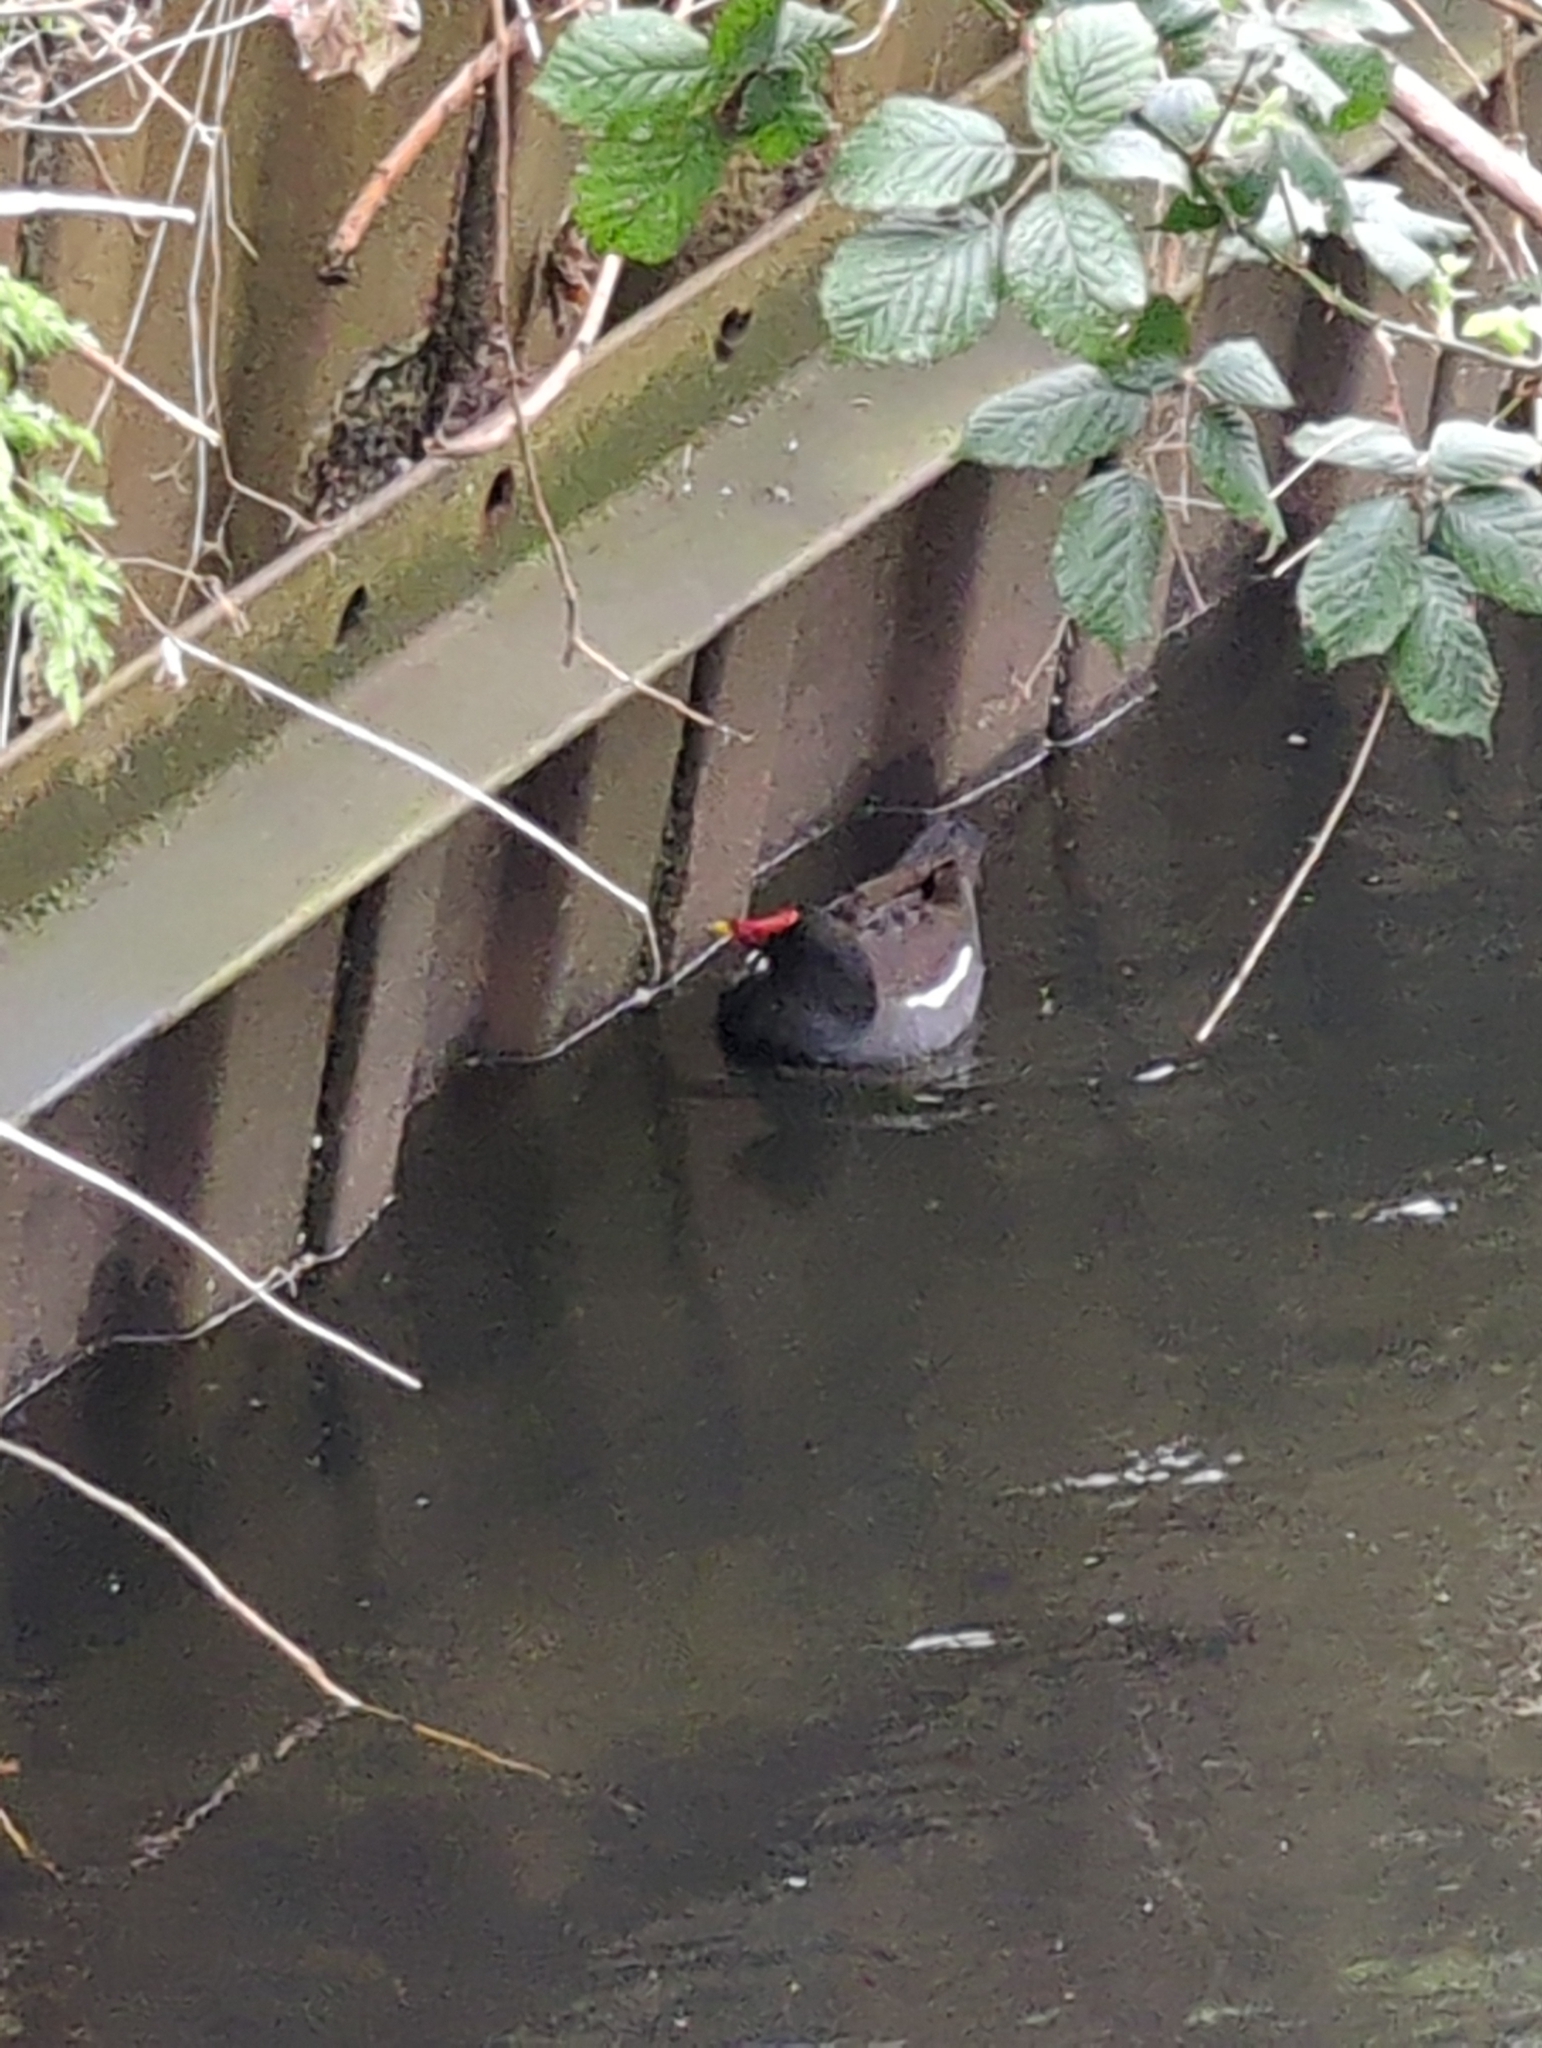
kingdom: Animalia
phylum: Chordata
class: Aves
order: Gruiformes
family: Rallidae
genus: Gallinula
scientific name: Gallinula chloropus
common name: Common moorhen
